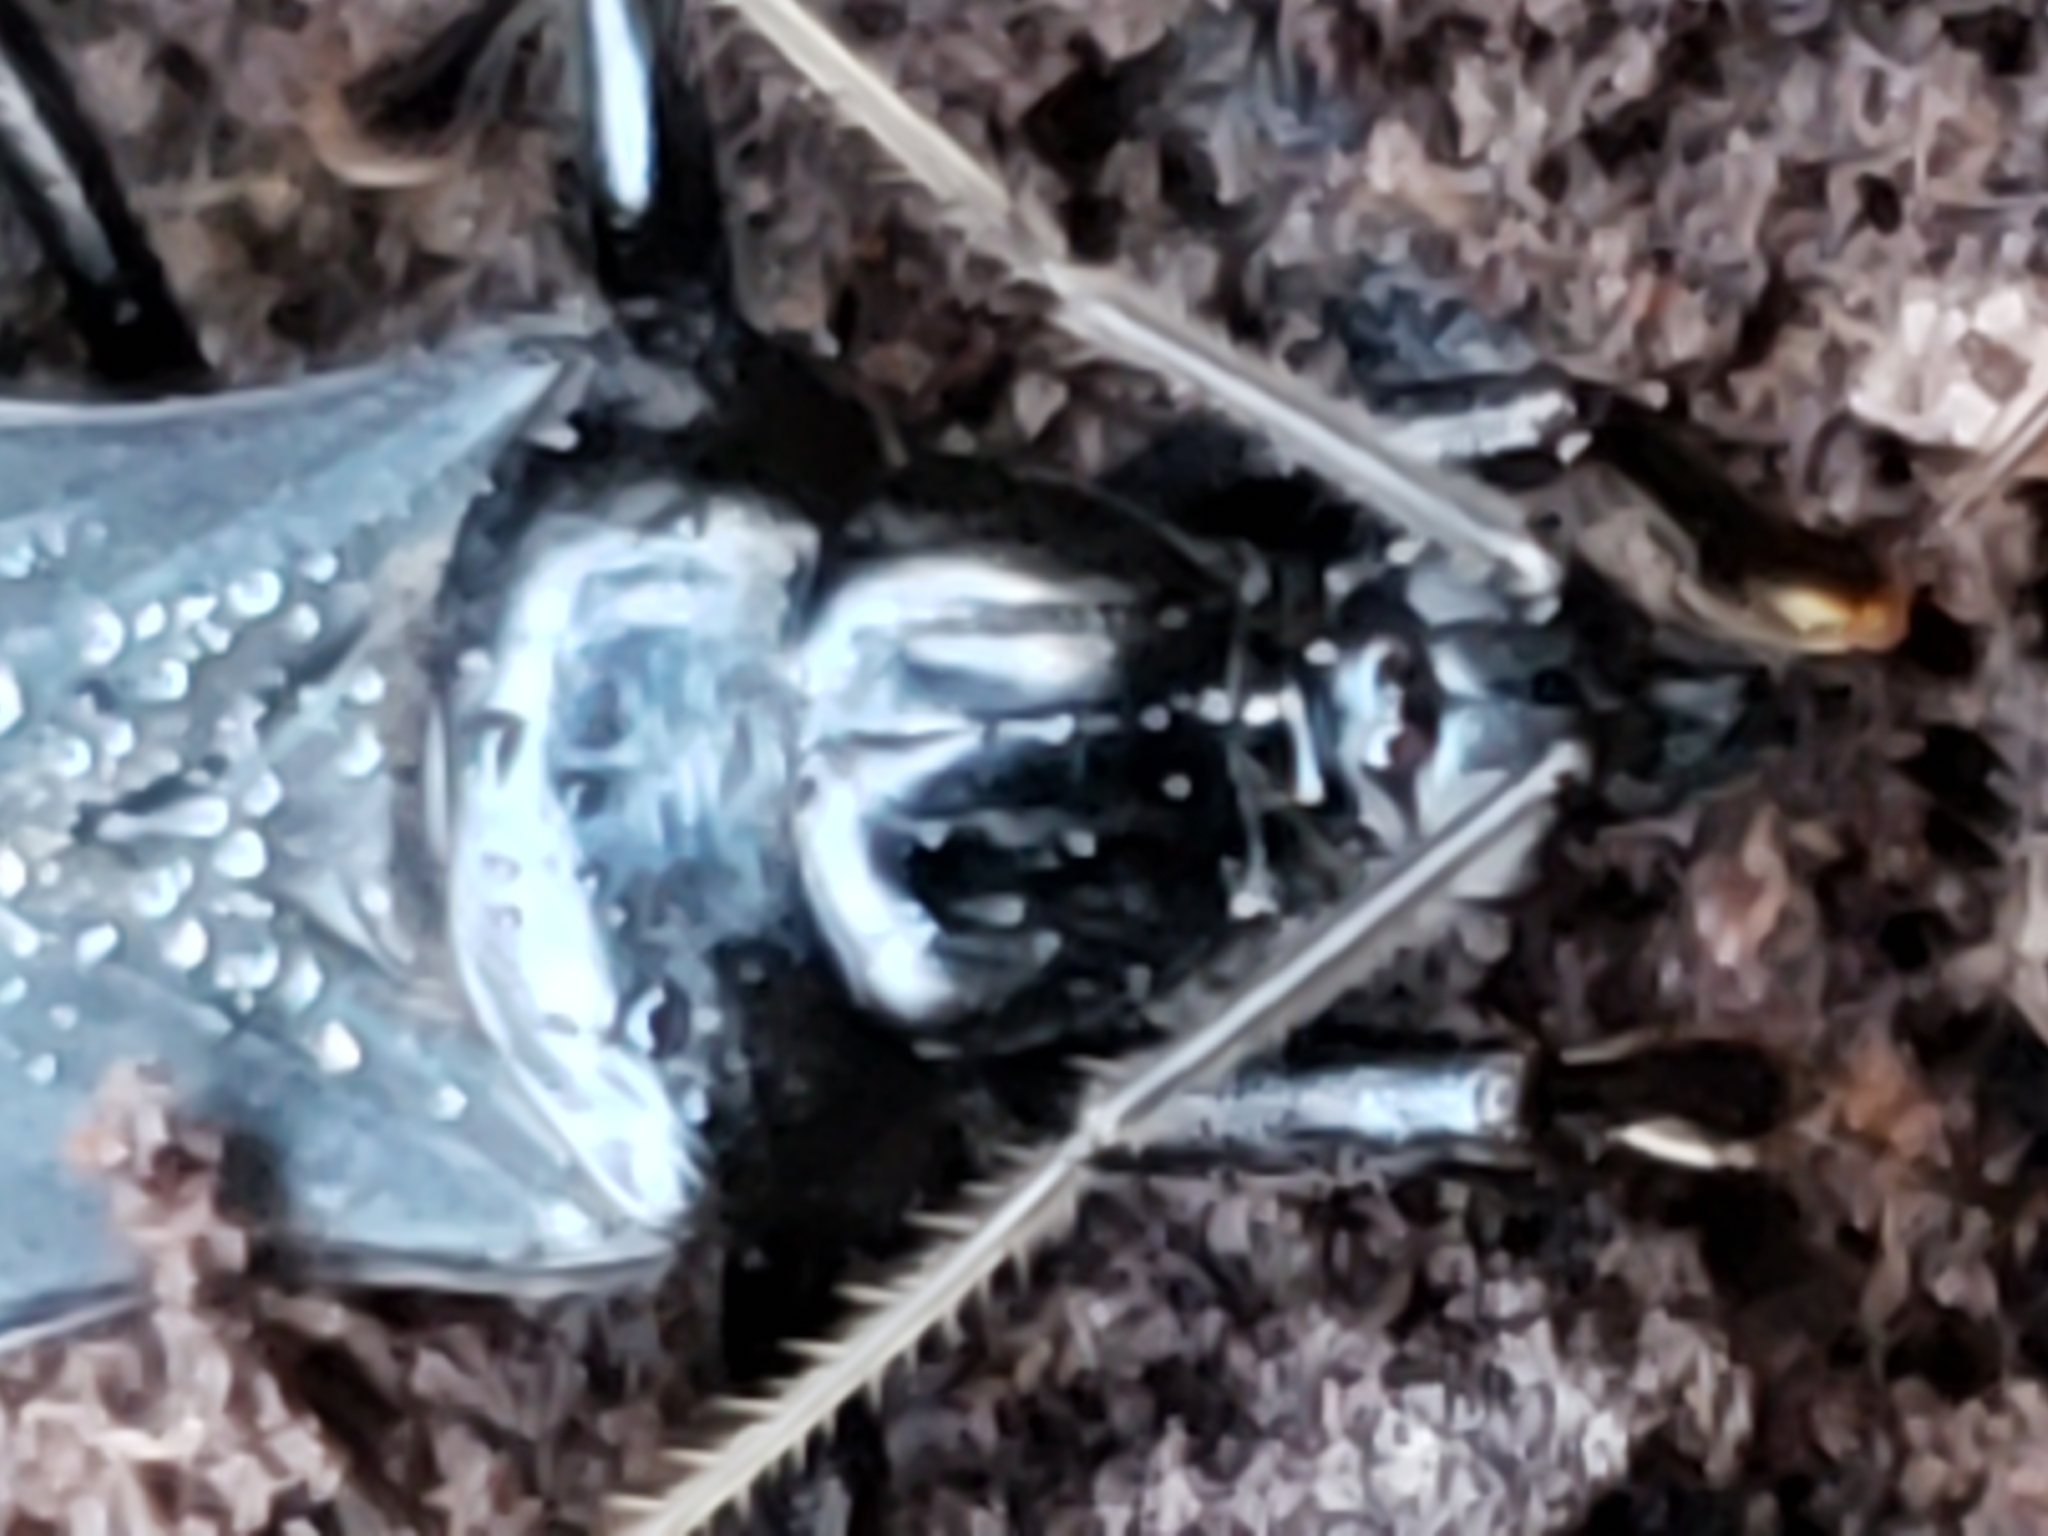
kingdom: Animalia
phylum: Arthropoda
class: Insecta
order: Hemiptera
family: Reduviidae
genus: Melanolestes
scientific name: Melanolestes picipes
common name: Assassin bug
